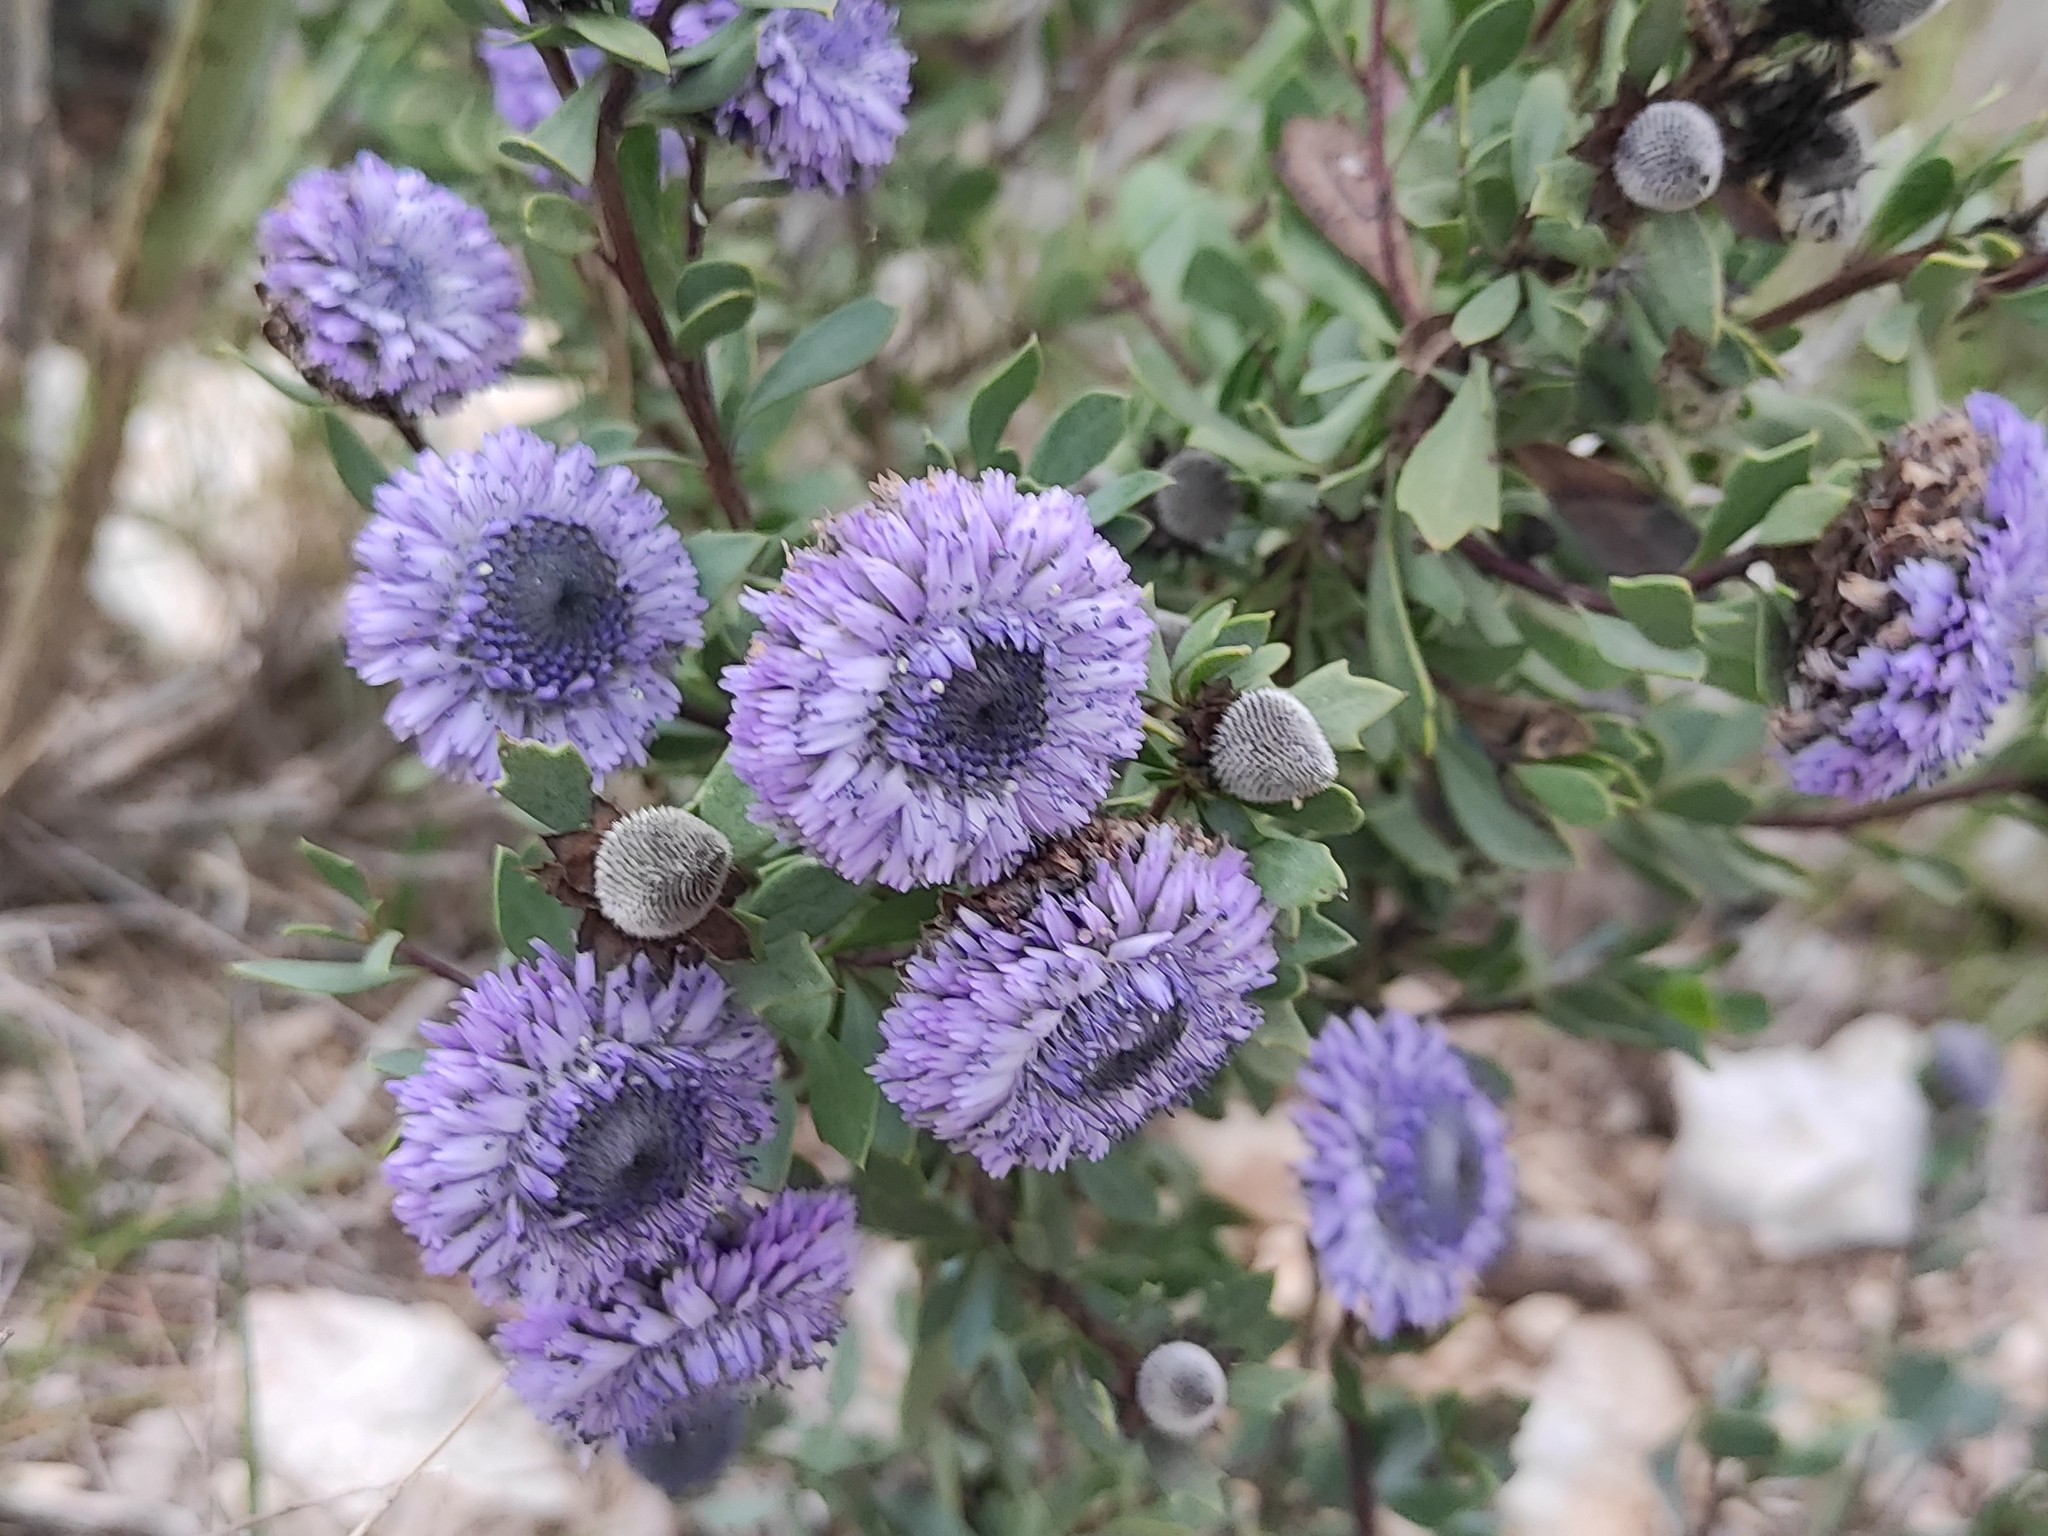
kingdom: Plantae
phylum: Tracheophyta
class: Magnoliopsida
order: Lamiales
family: Plantaginaceae
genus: Globularia
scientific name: Globularia alypum
